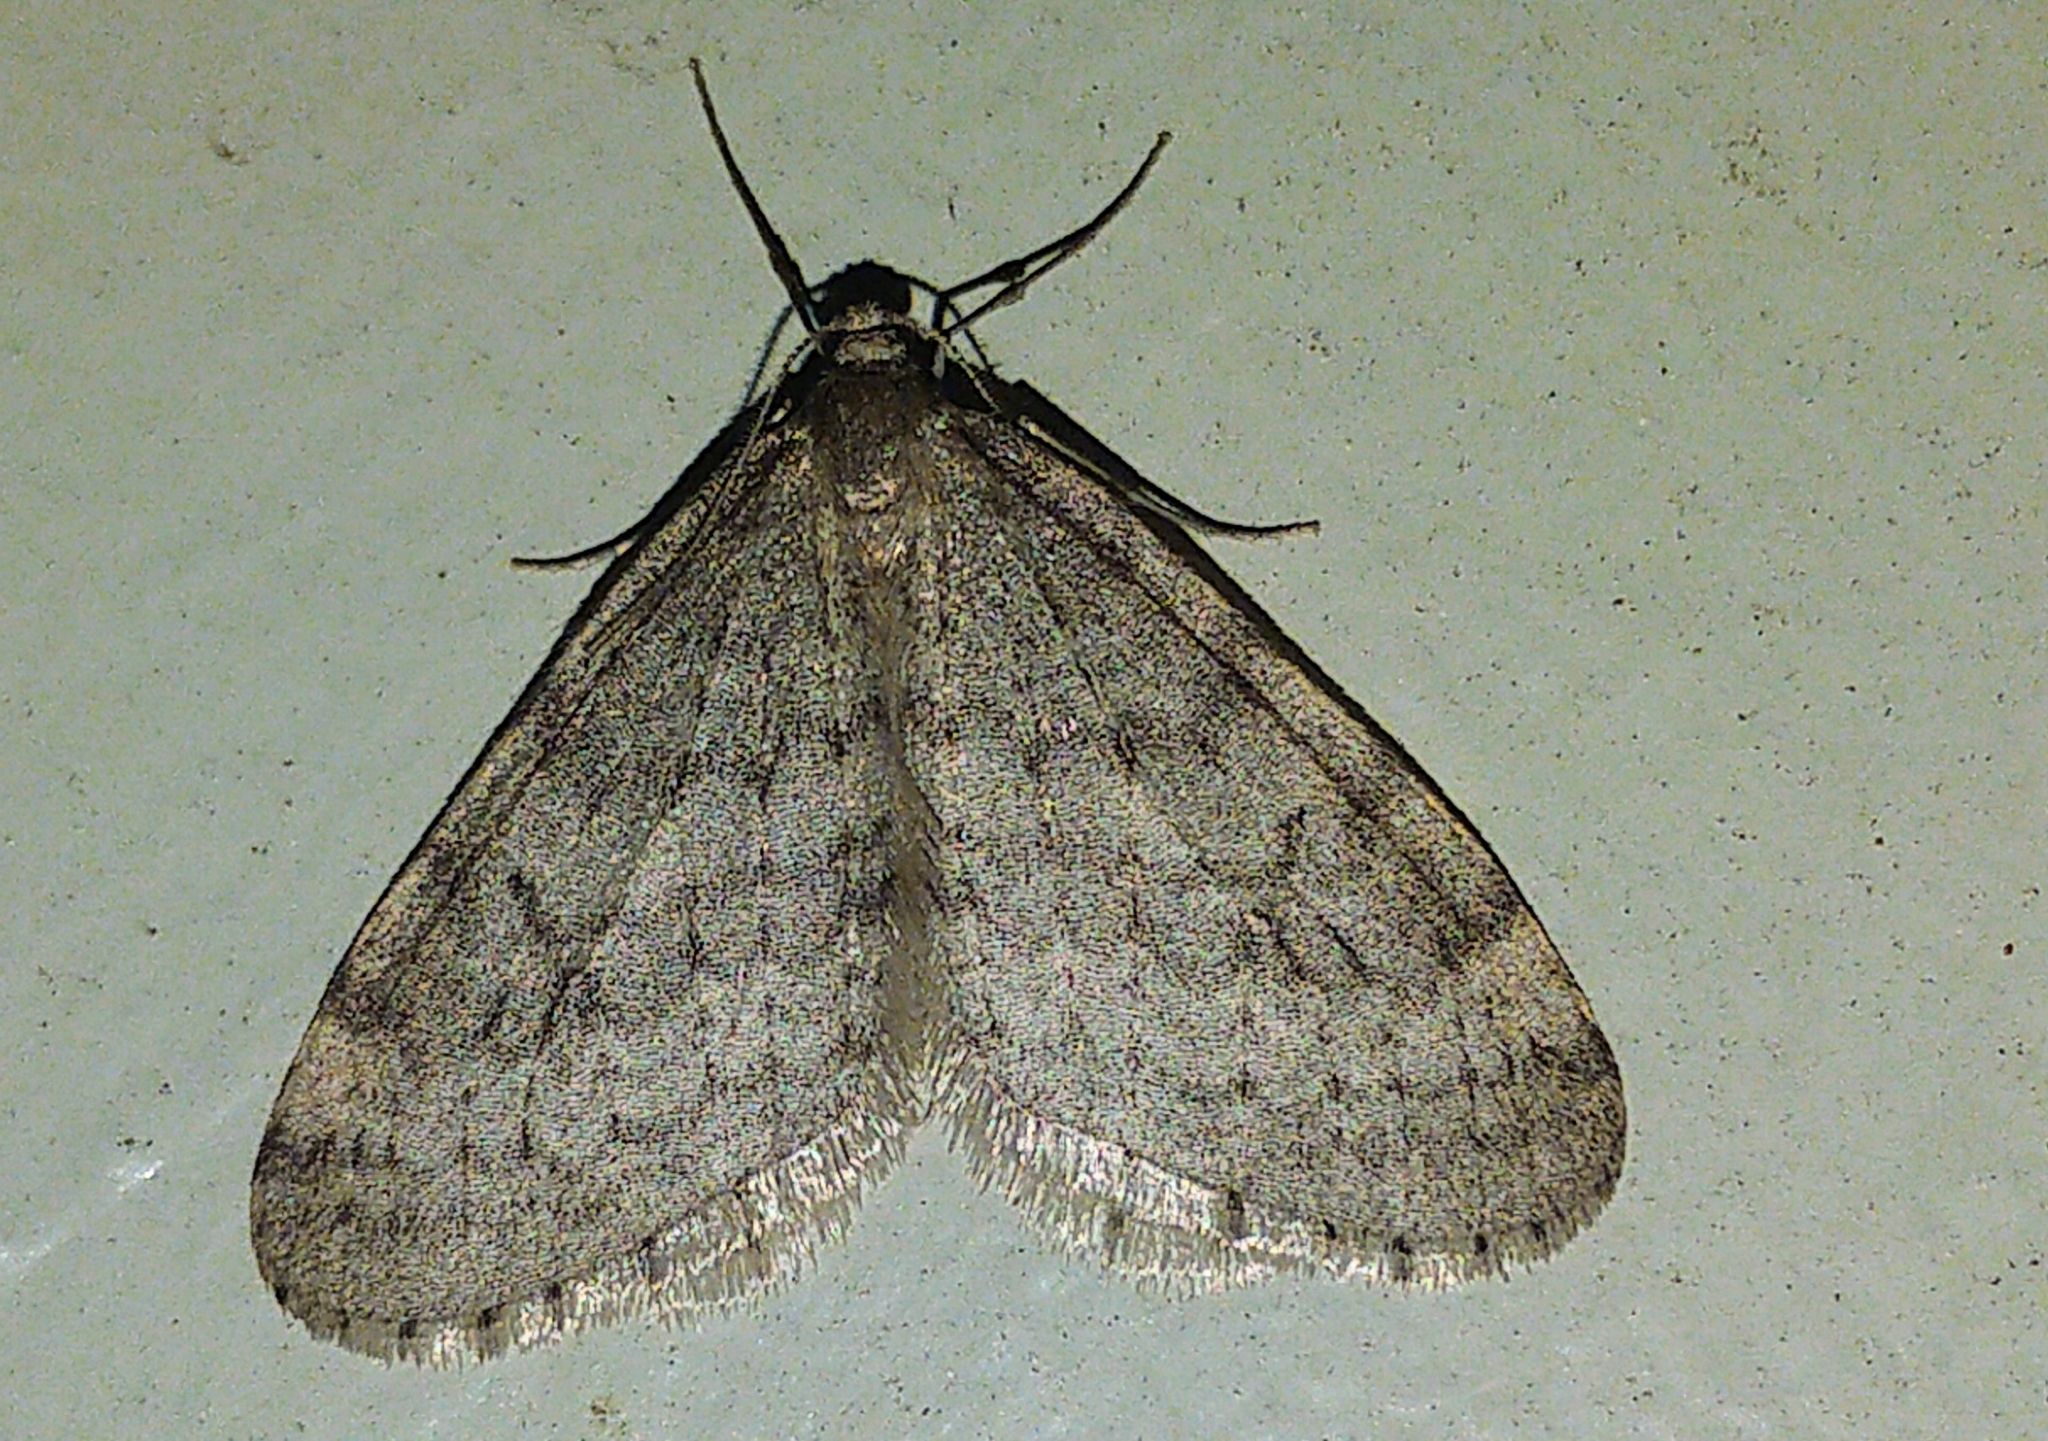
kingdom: Animalia
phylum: Arthropoda
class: Insecta
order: Lepidoptera
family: Geometridae
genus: Operophtera
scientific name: Operophtera bruceata
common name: Bruce spanworm
